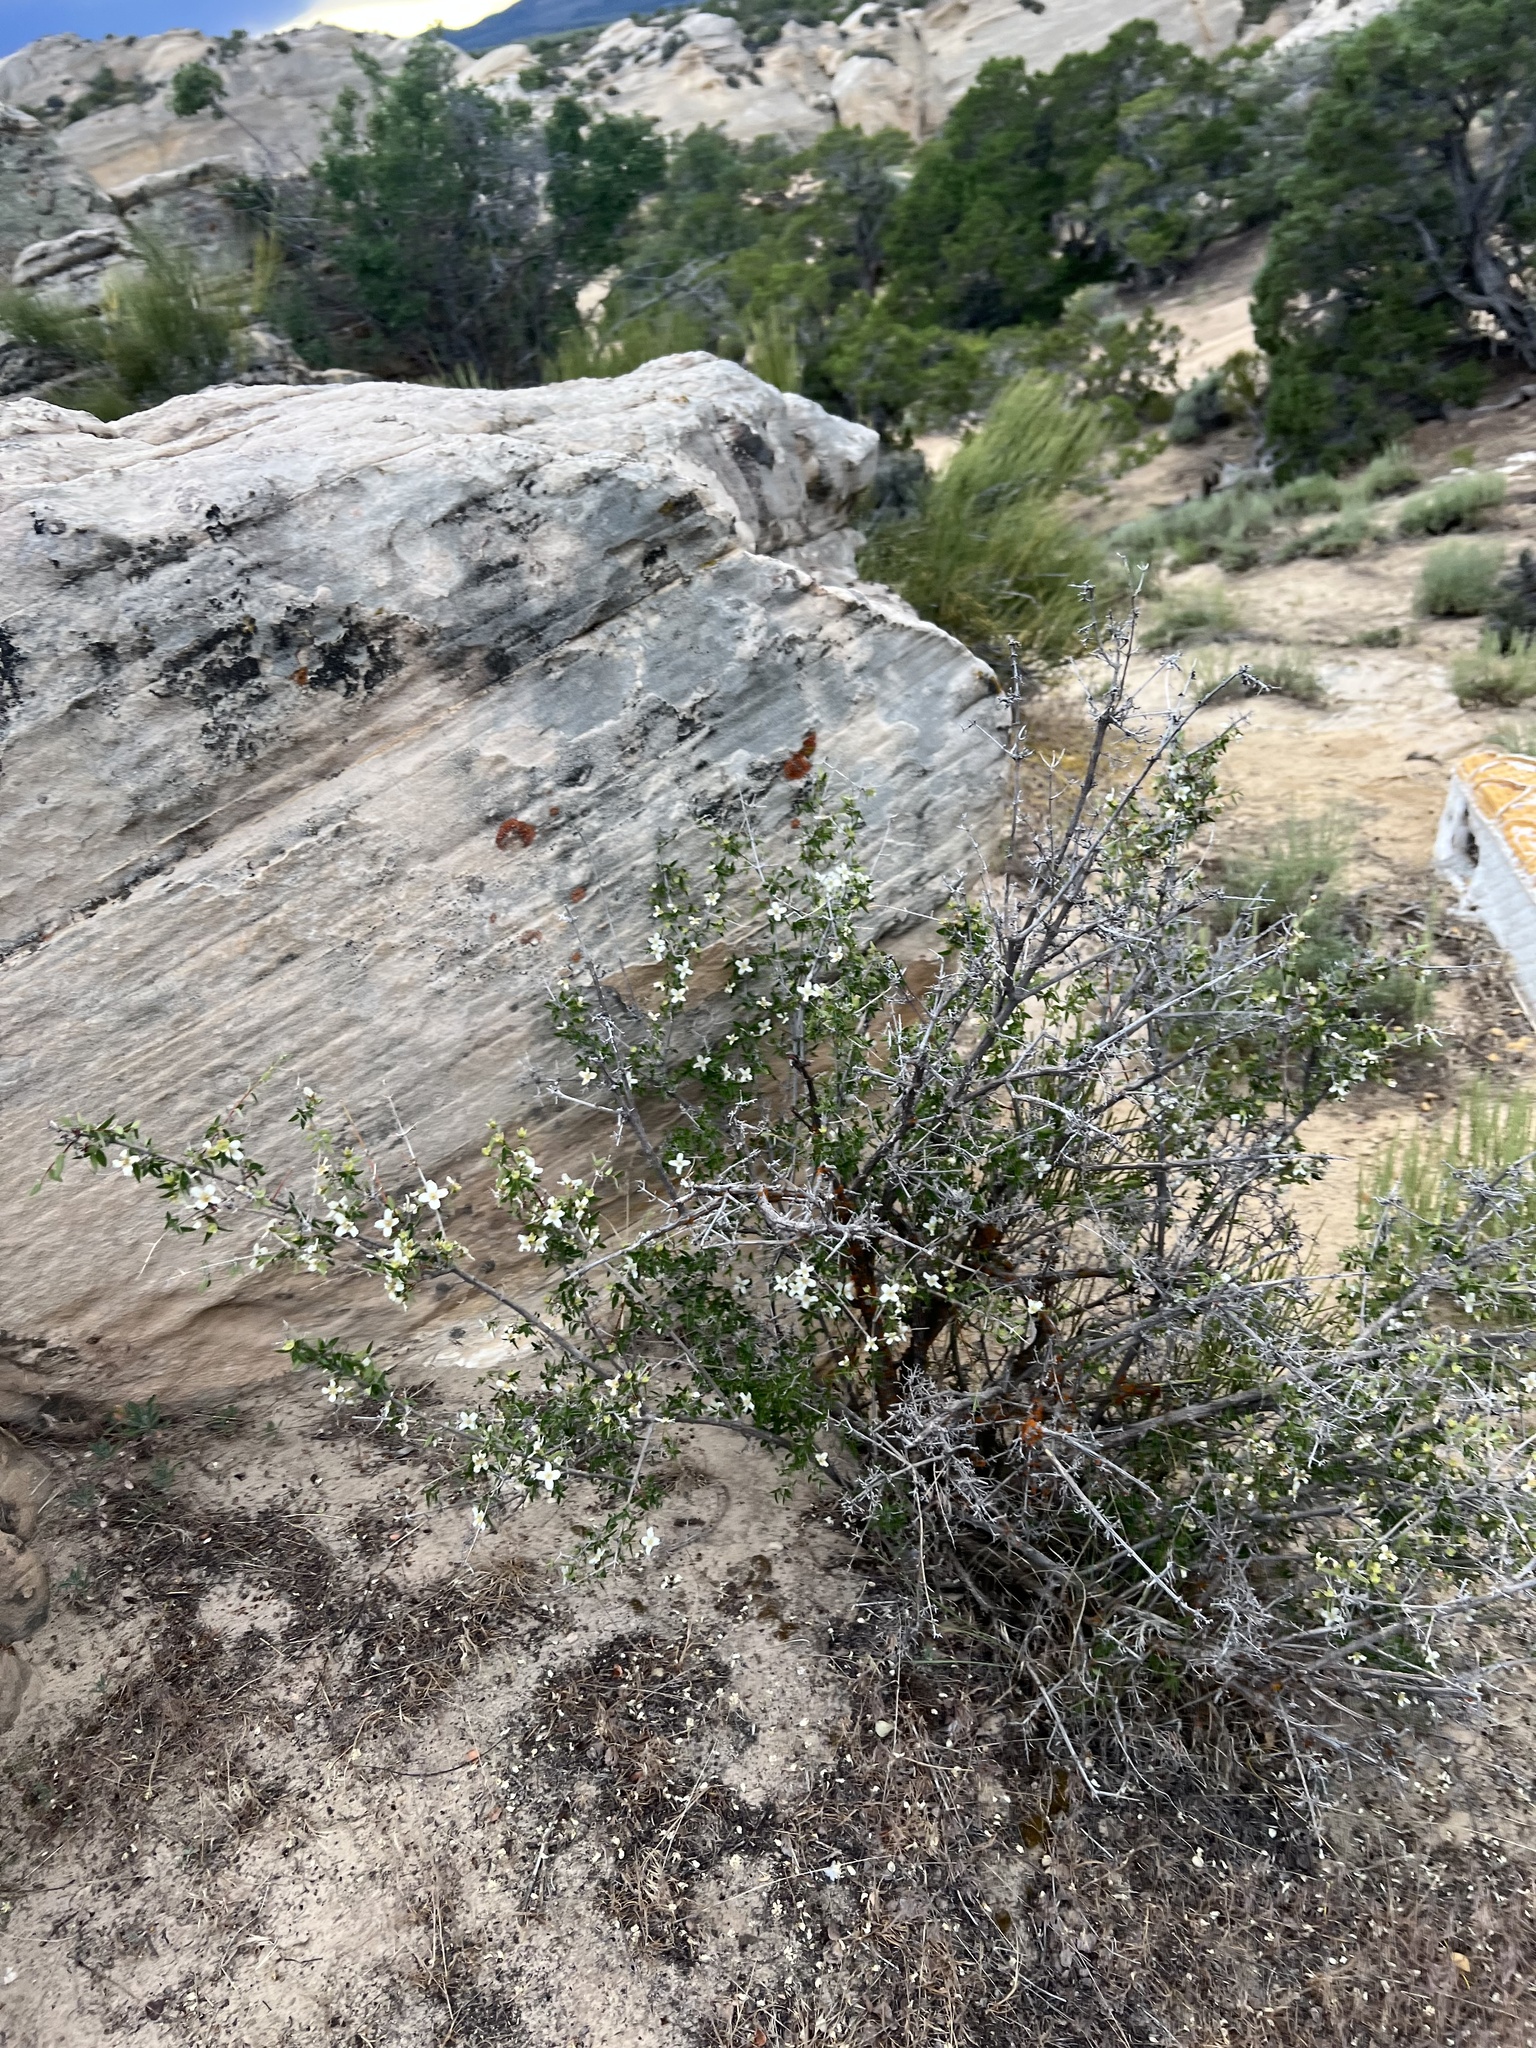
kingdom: Plantae
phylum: Tracheophyta
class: Magnoliopsida
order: Cornales
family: Hydrangeaceae
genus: Philadelphus
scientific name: Philadelphus microphyllus
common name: Desert mock orange
